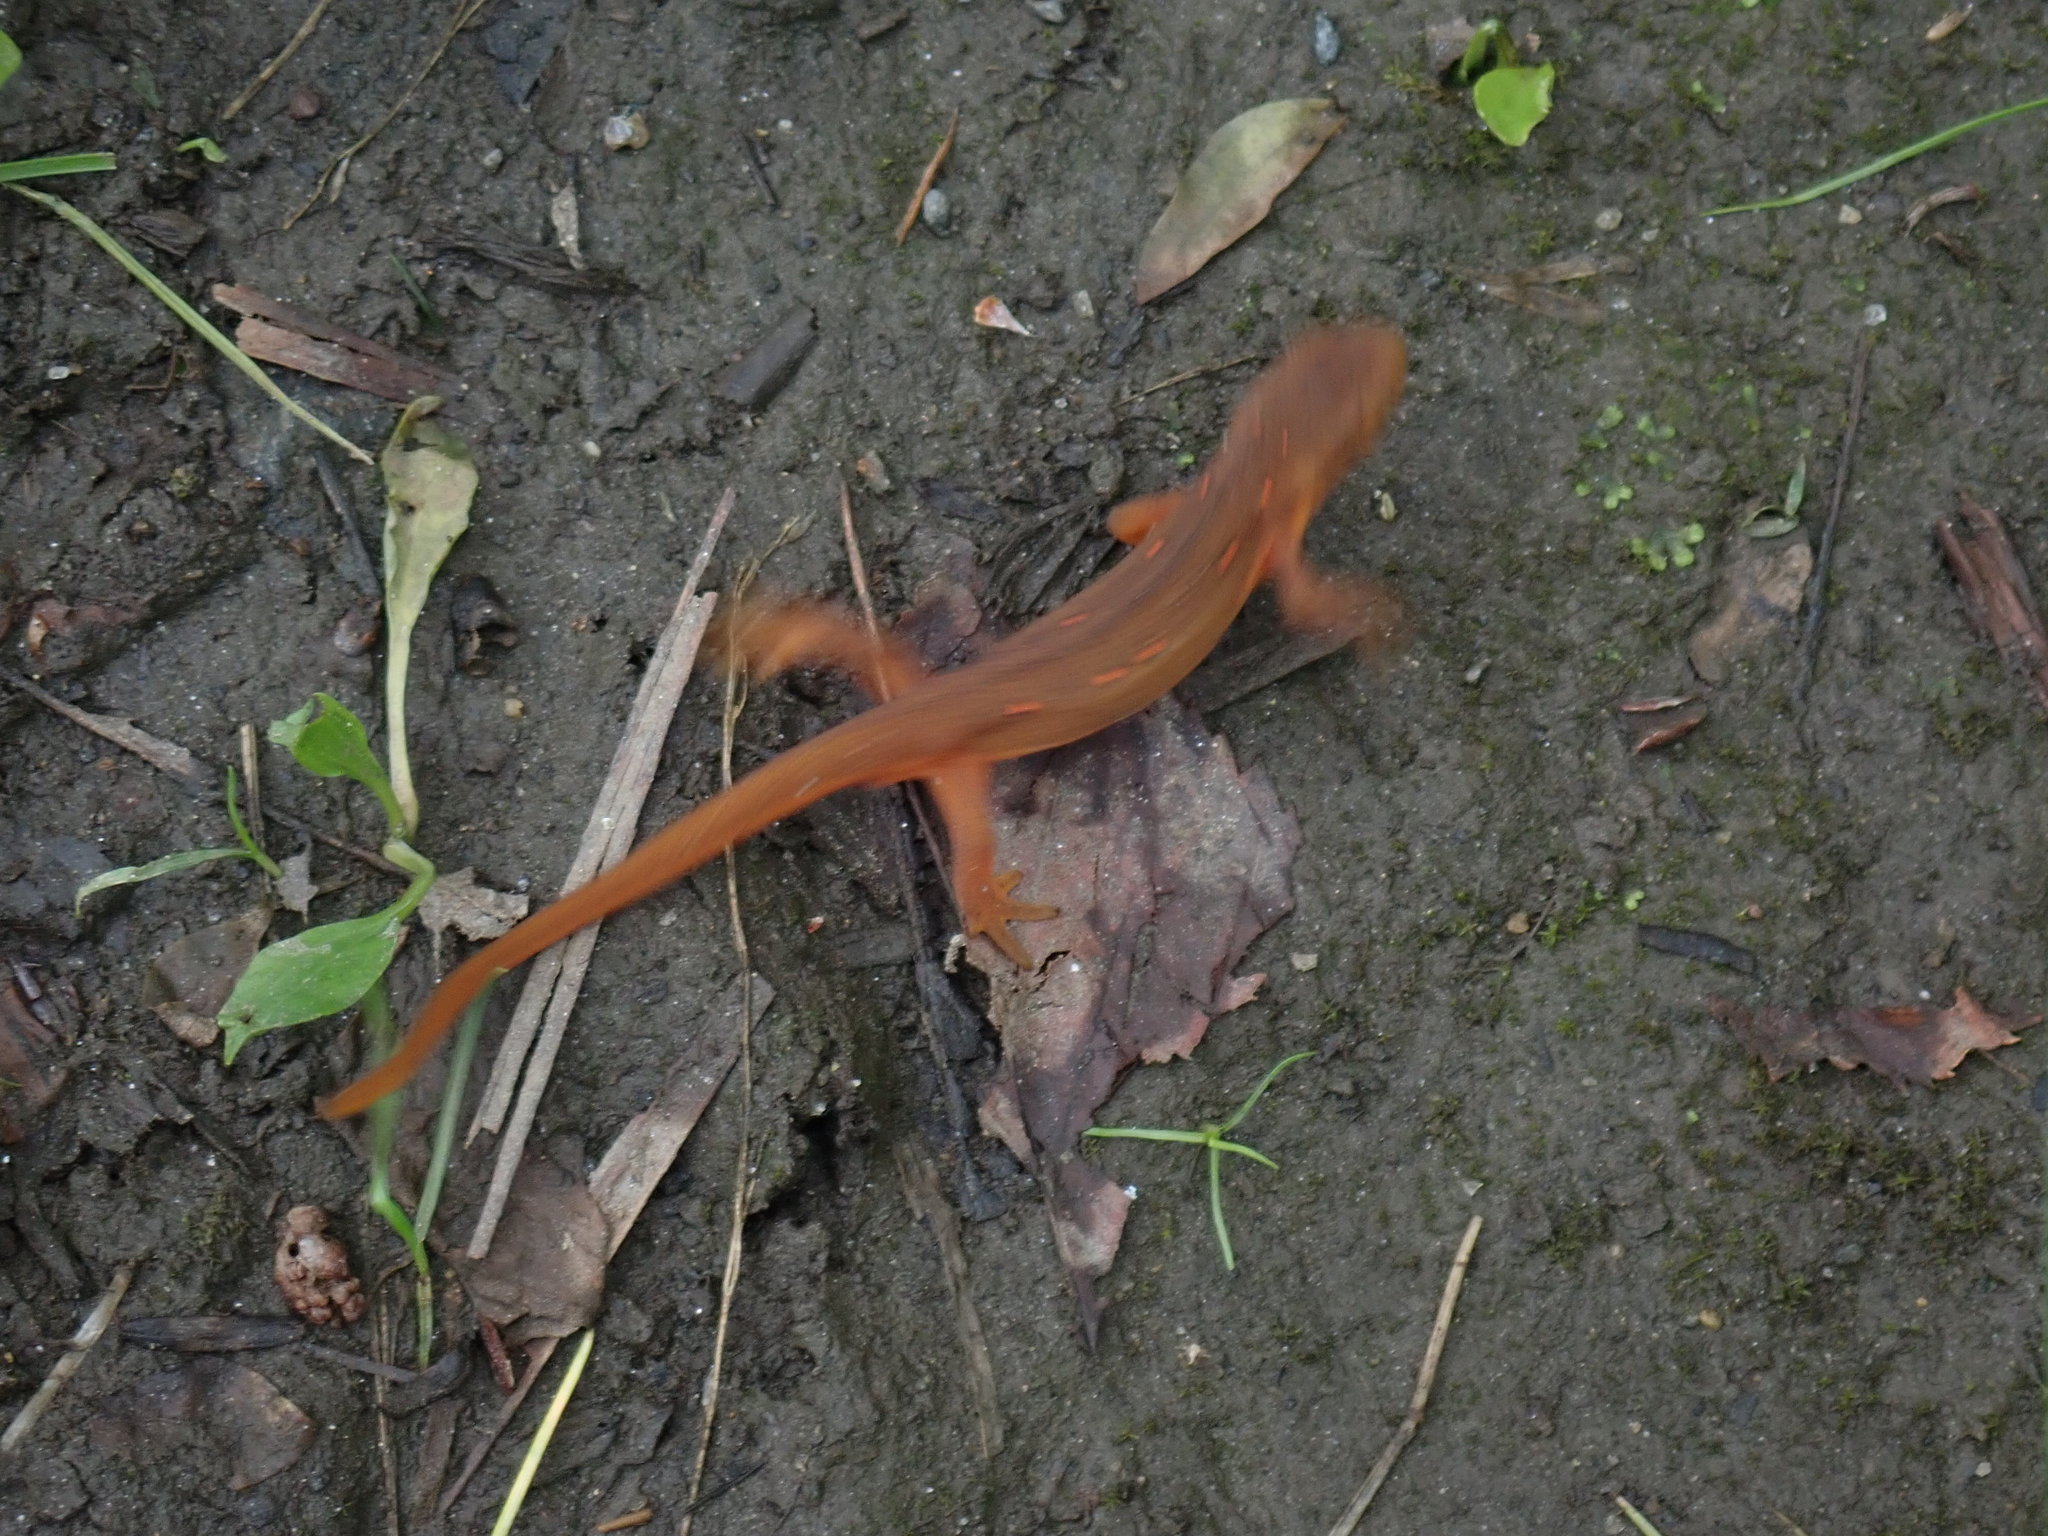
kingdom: Animalia
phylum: Chordata
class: Amphibia
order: Caudata
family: Salamandridae
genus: Notophthalmus
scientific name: Notophthalmus viridescens
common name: Eastern newt
